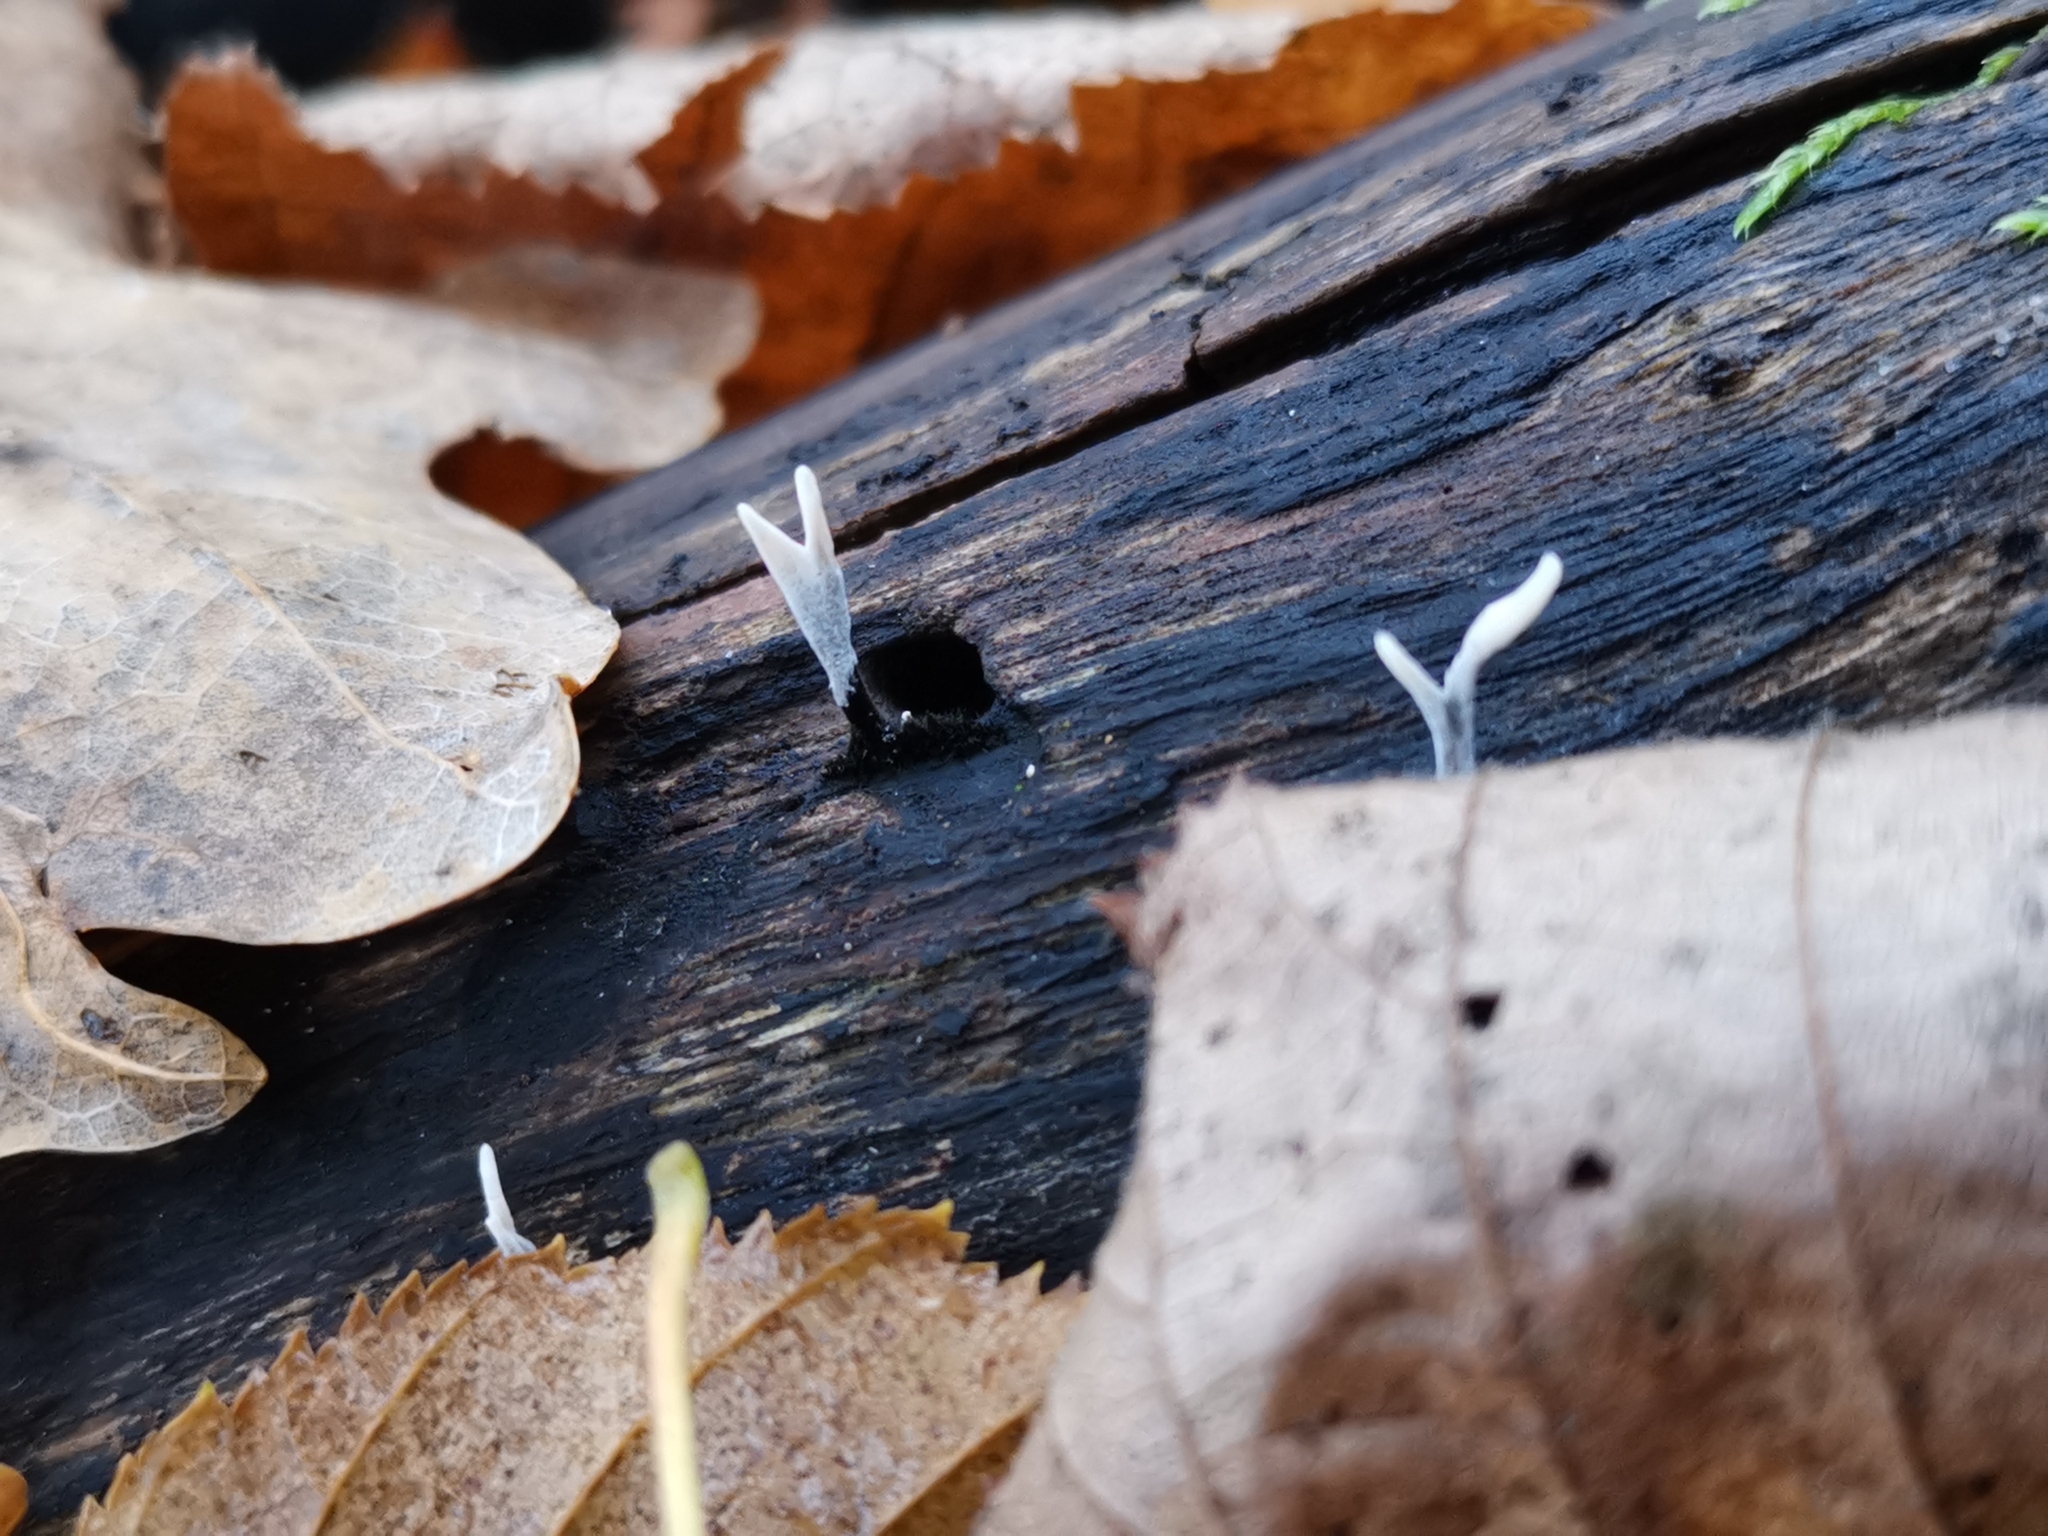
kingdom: Fungi
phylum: Ascomycota
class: Sordariomycetes
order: Xylariales
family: Xylariaceae
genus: Xylaria
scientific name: Xylaria hypoxylon
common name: Candle-snuff fungus
